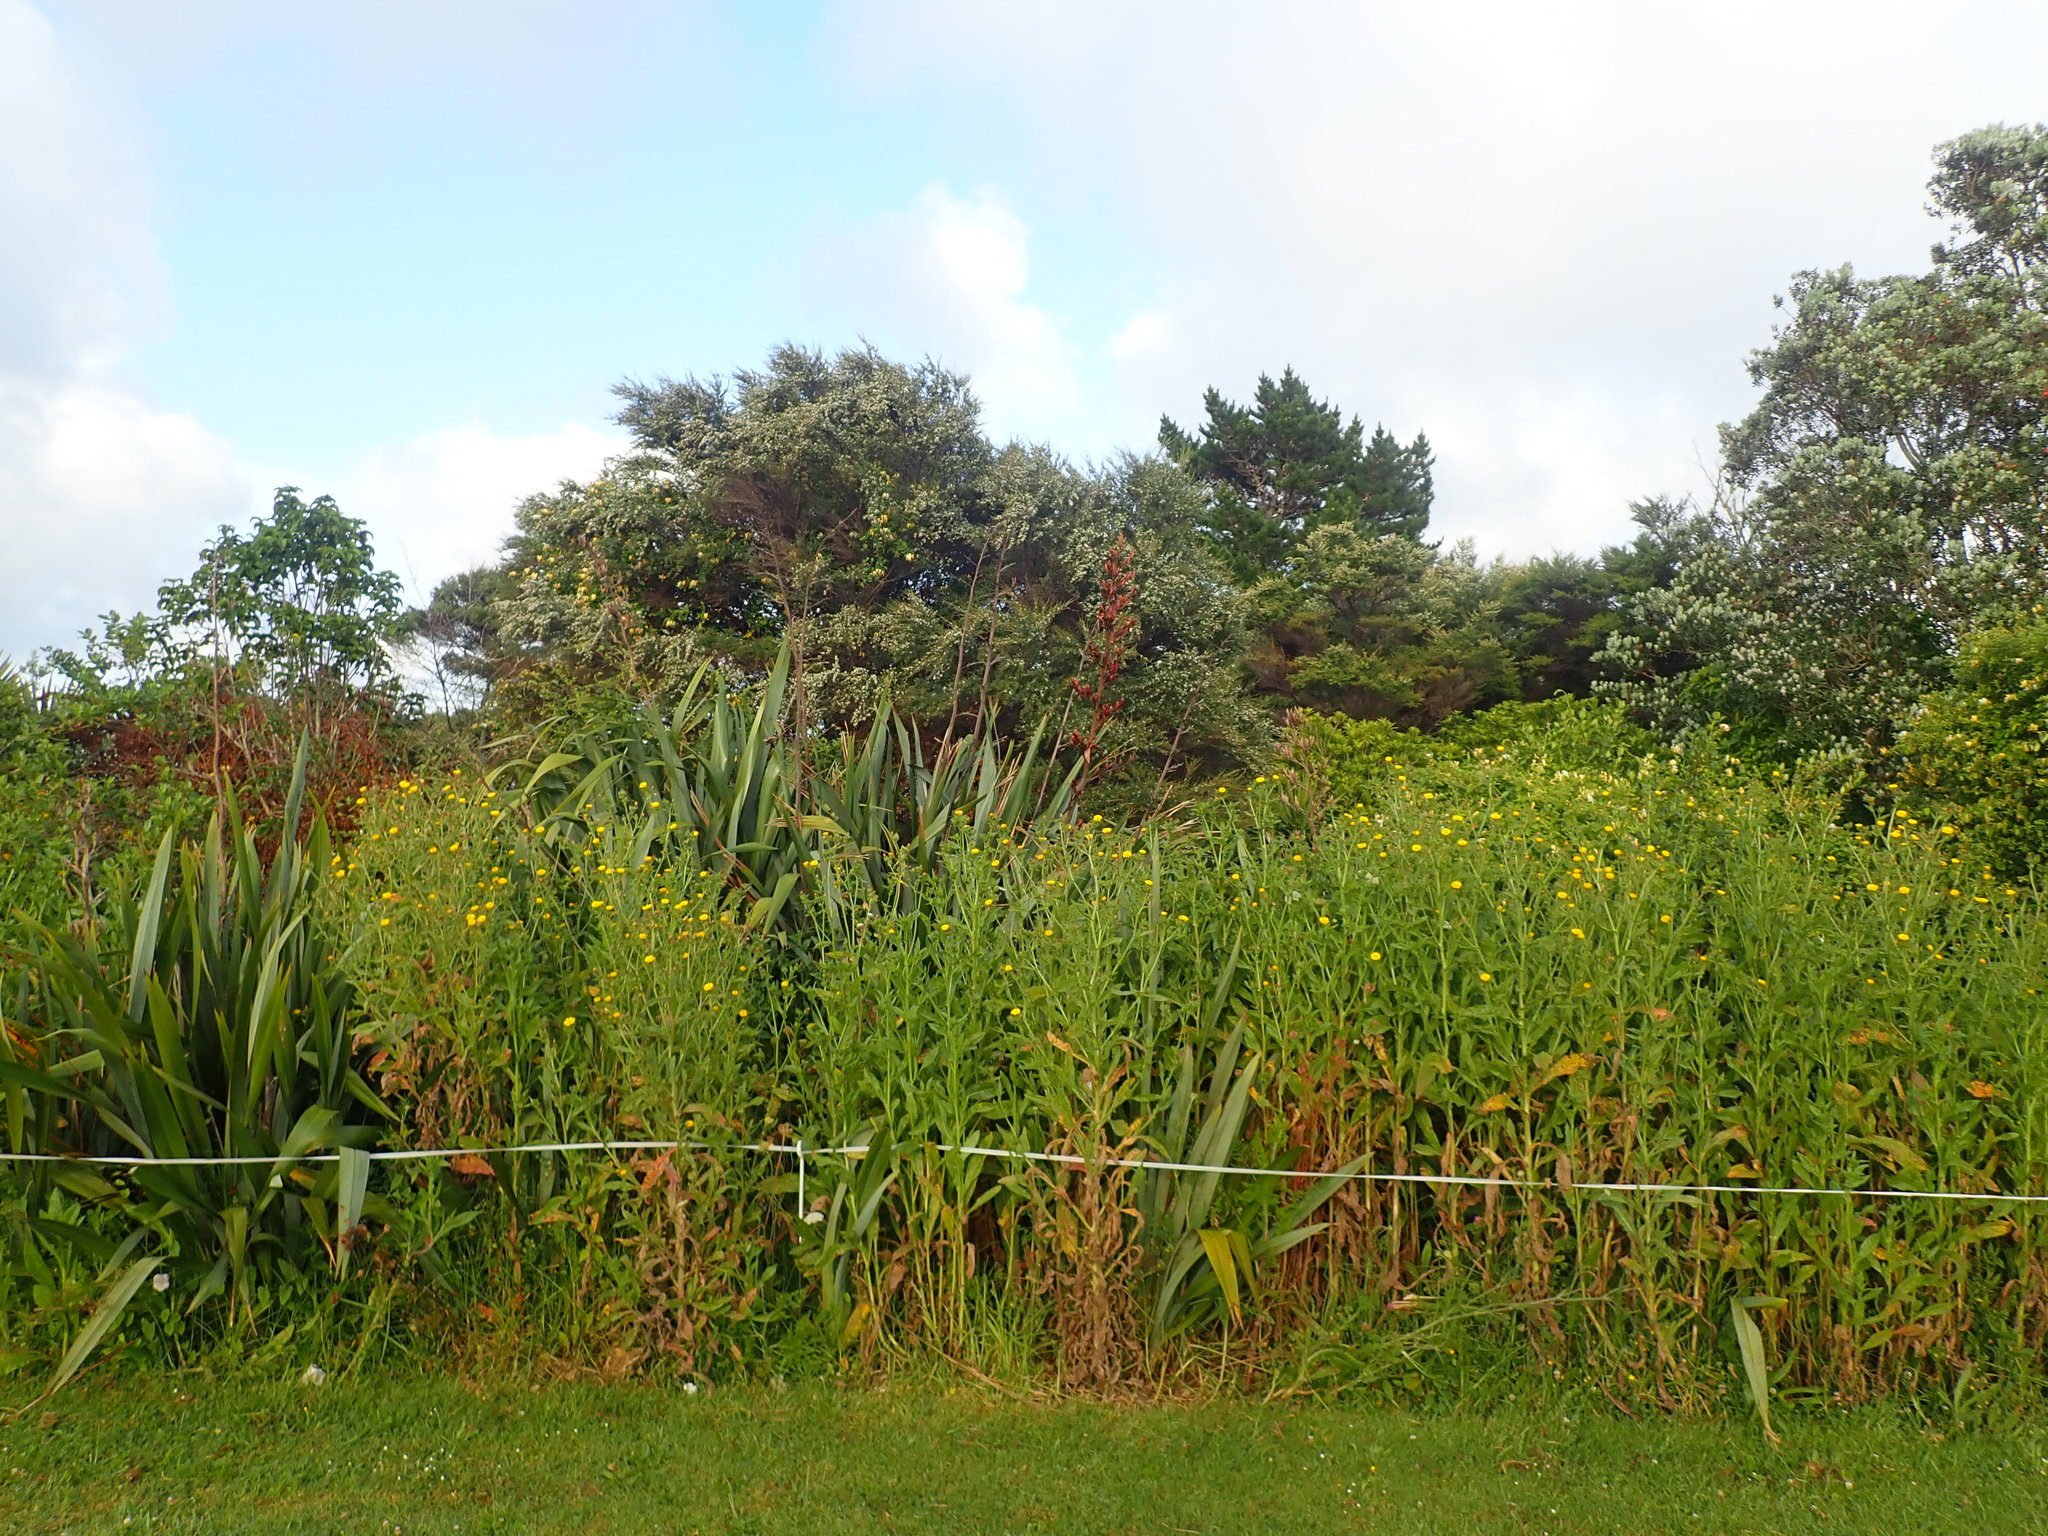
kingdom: Plantae
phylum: Tracheophyta
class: Liliopsida
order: Poales
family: Poaceae
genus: Cenchrus
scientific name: Cenchrus clandestinus
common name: Kikuyugrass
